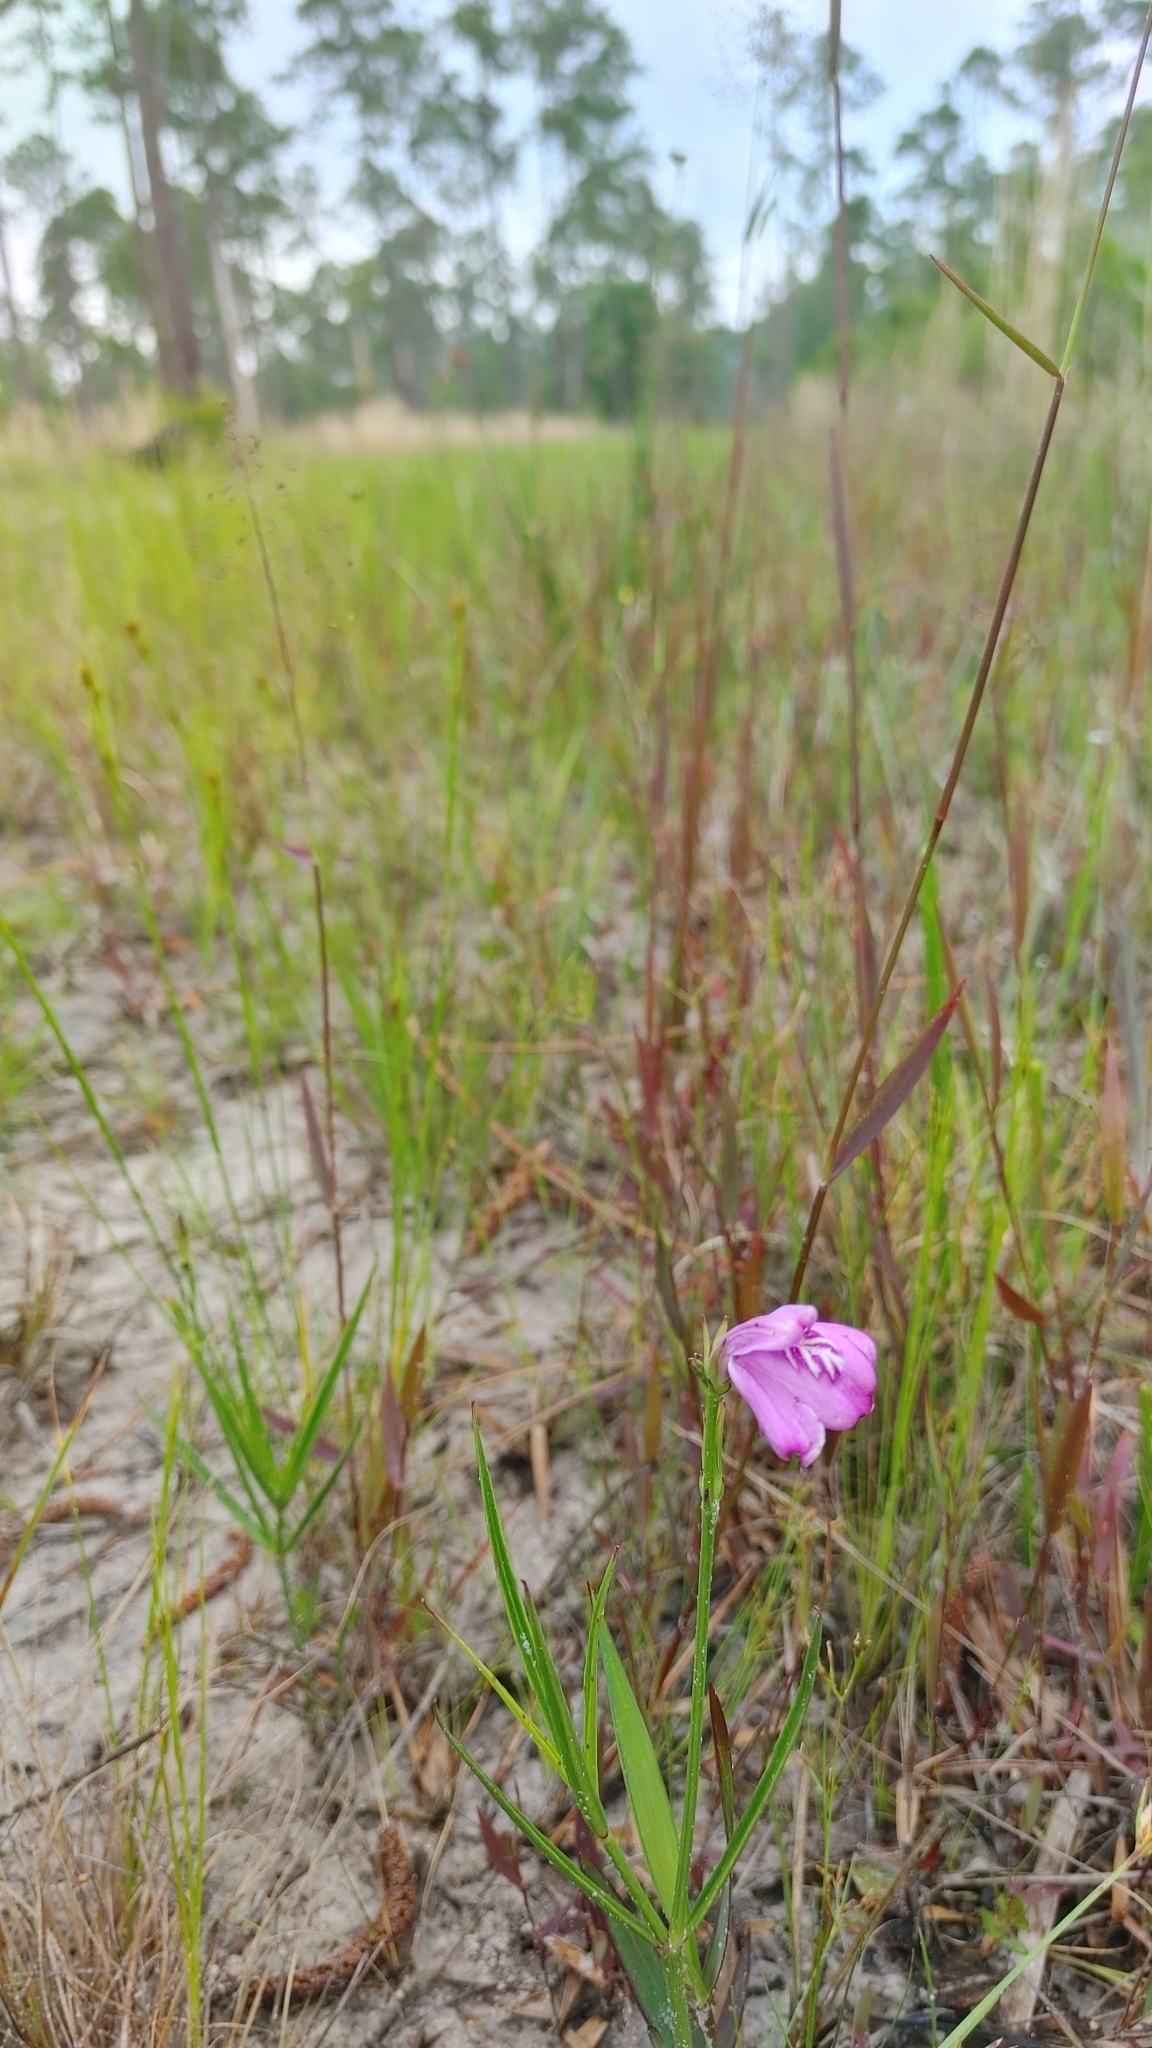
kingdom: Plantae
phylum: Tracheophyta
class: Magnoliopsida
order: Lamiales
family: Acanthaceae
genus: Dianthera
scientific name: Dianthera crassifolia
